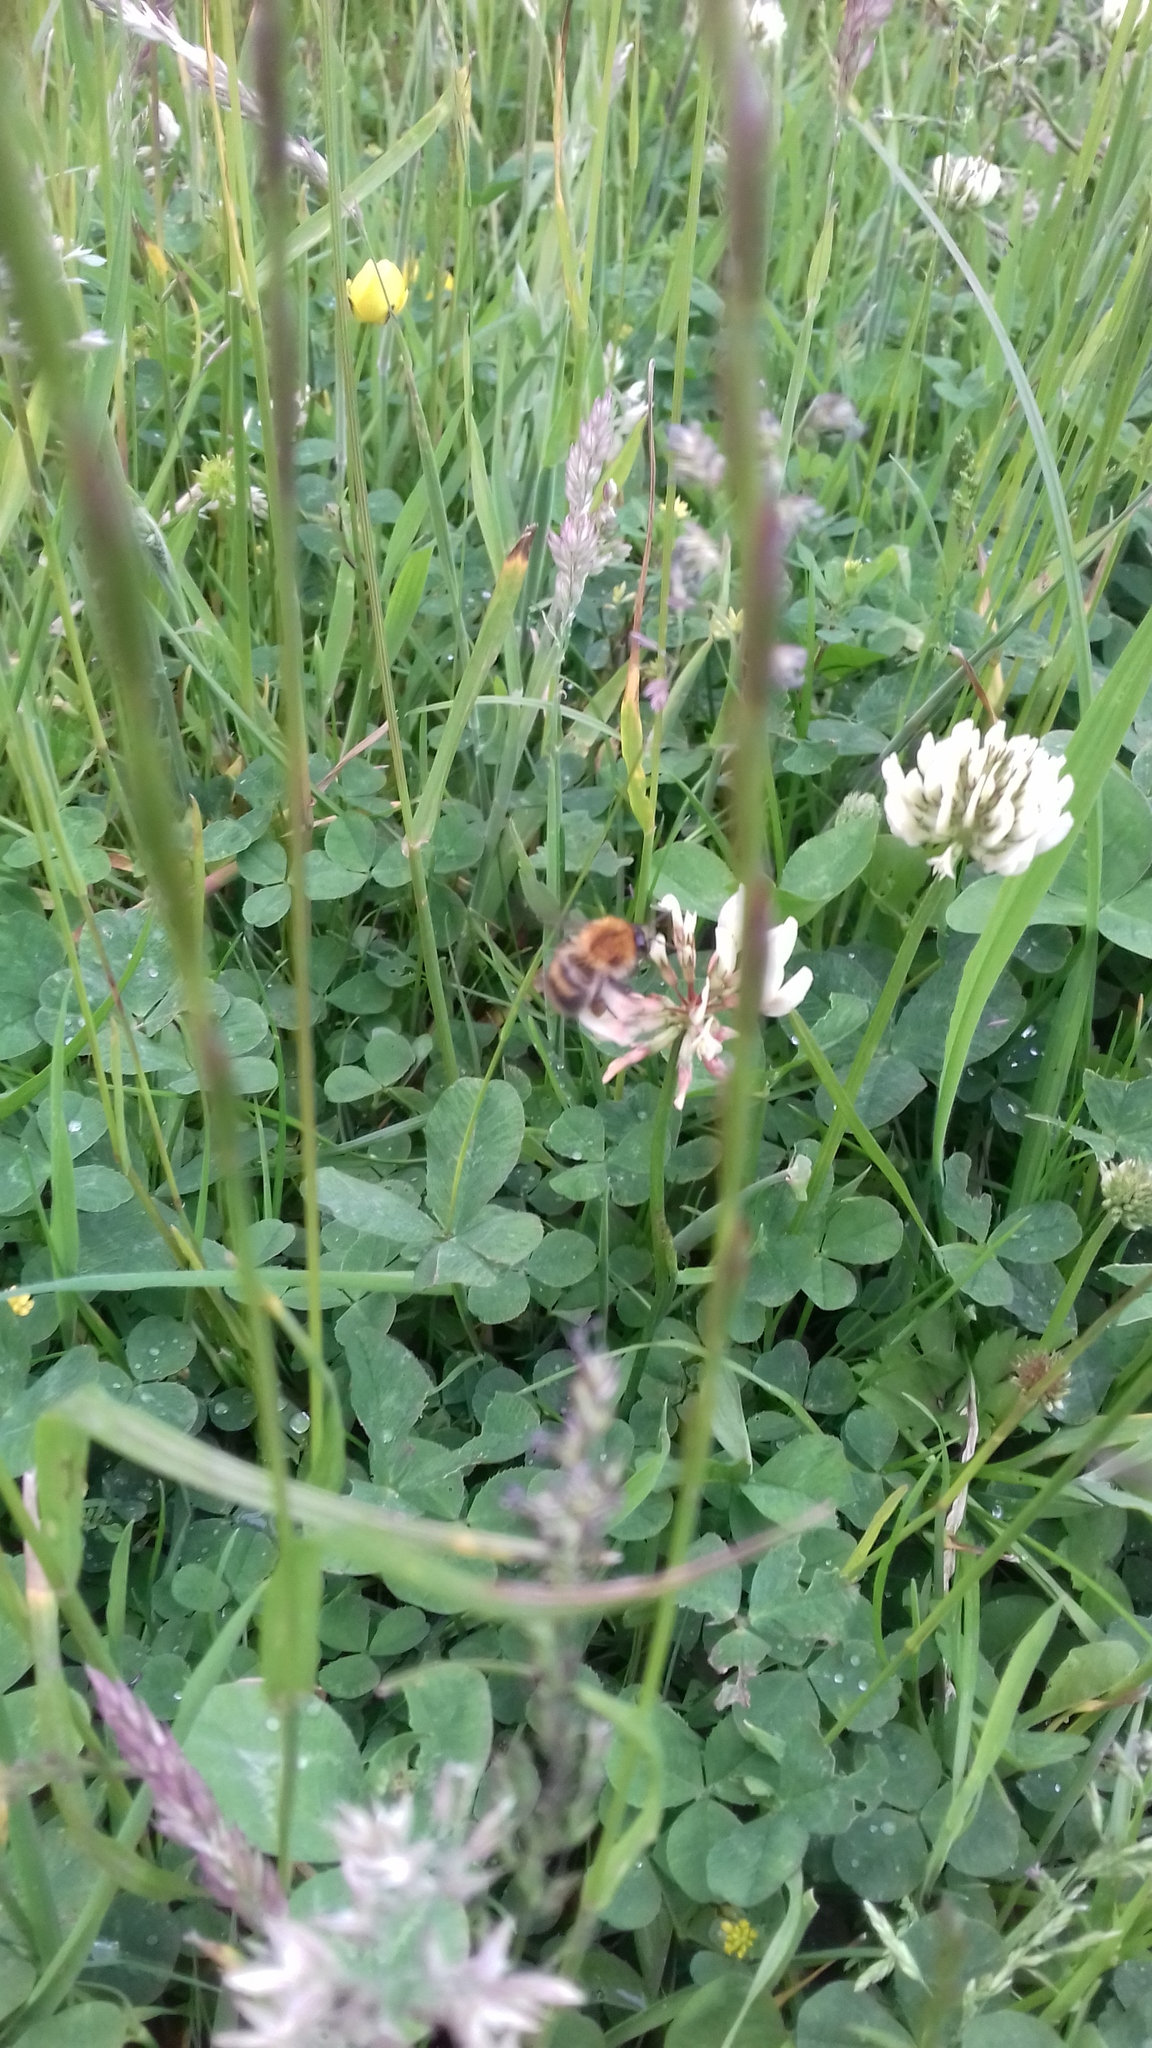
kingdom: Plantae
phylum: Tracheophyta
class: Magnoliopsida
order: Fabales
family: Fabaceae
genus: Trifolium
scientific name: Trifolium repens
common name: White clover
